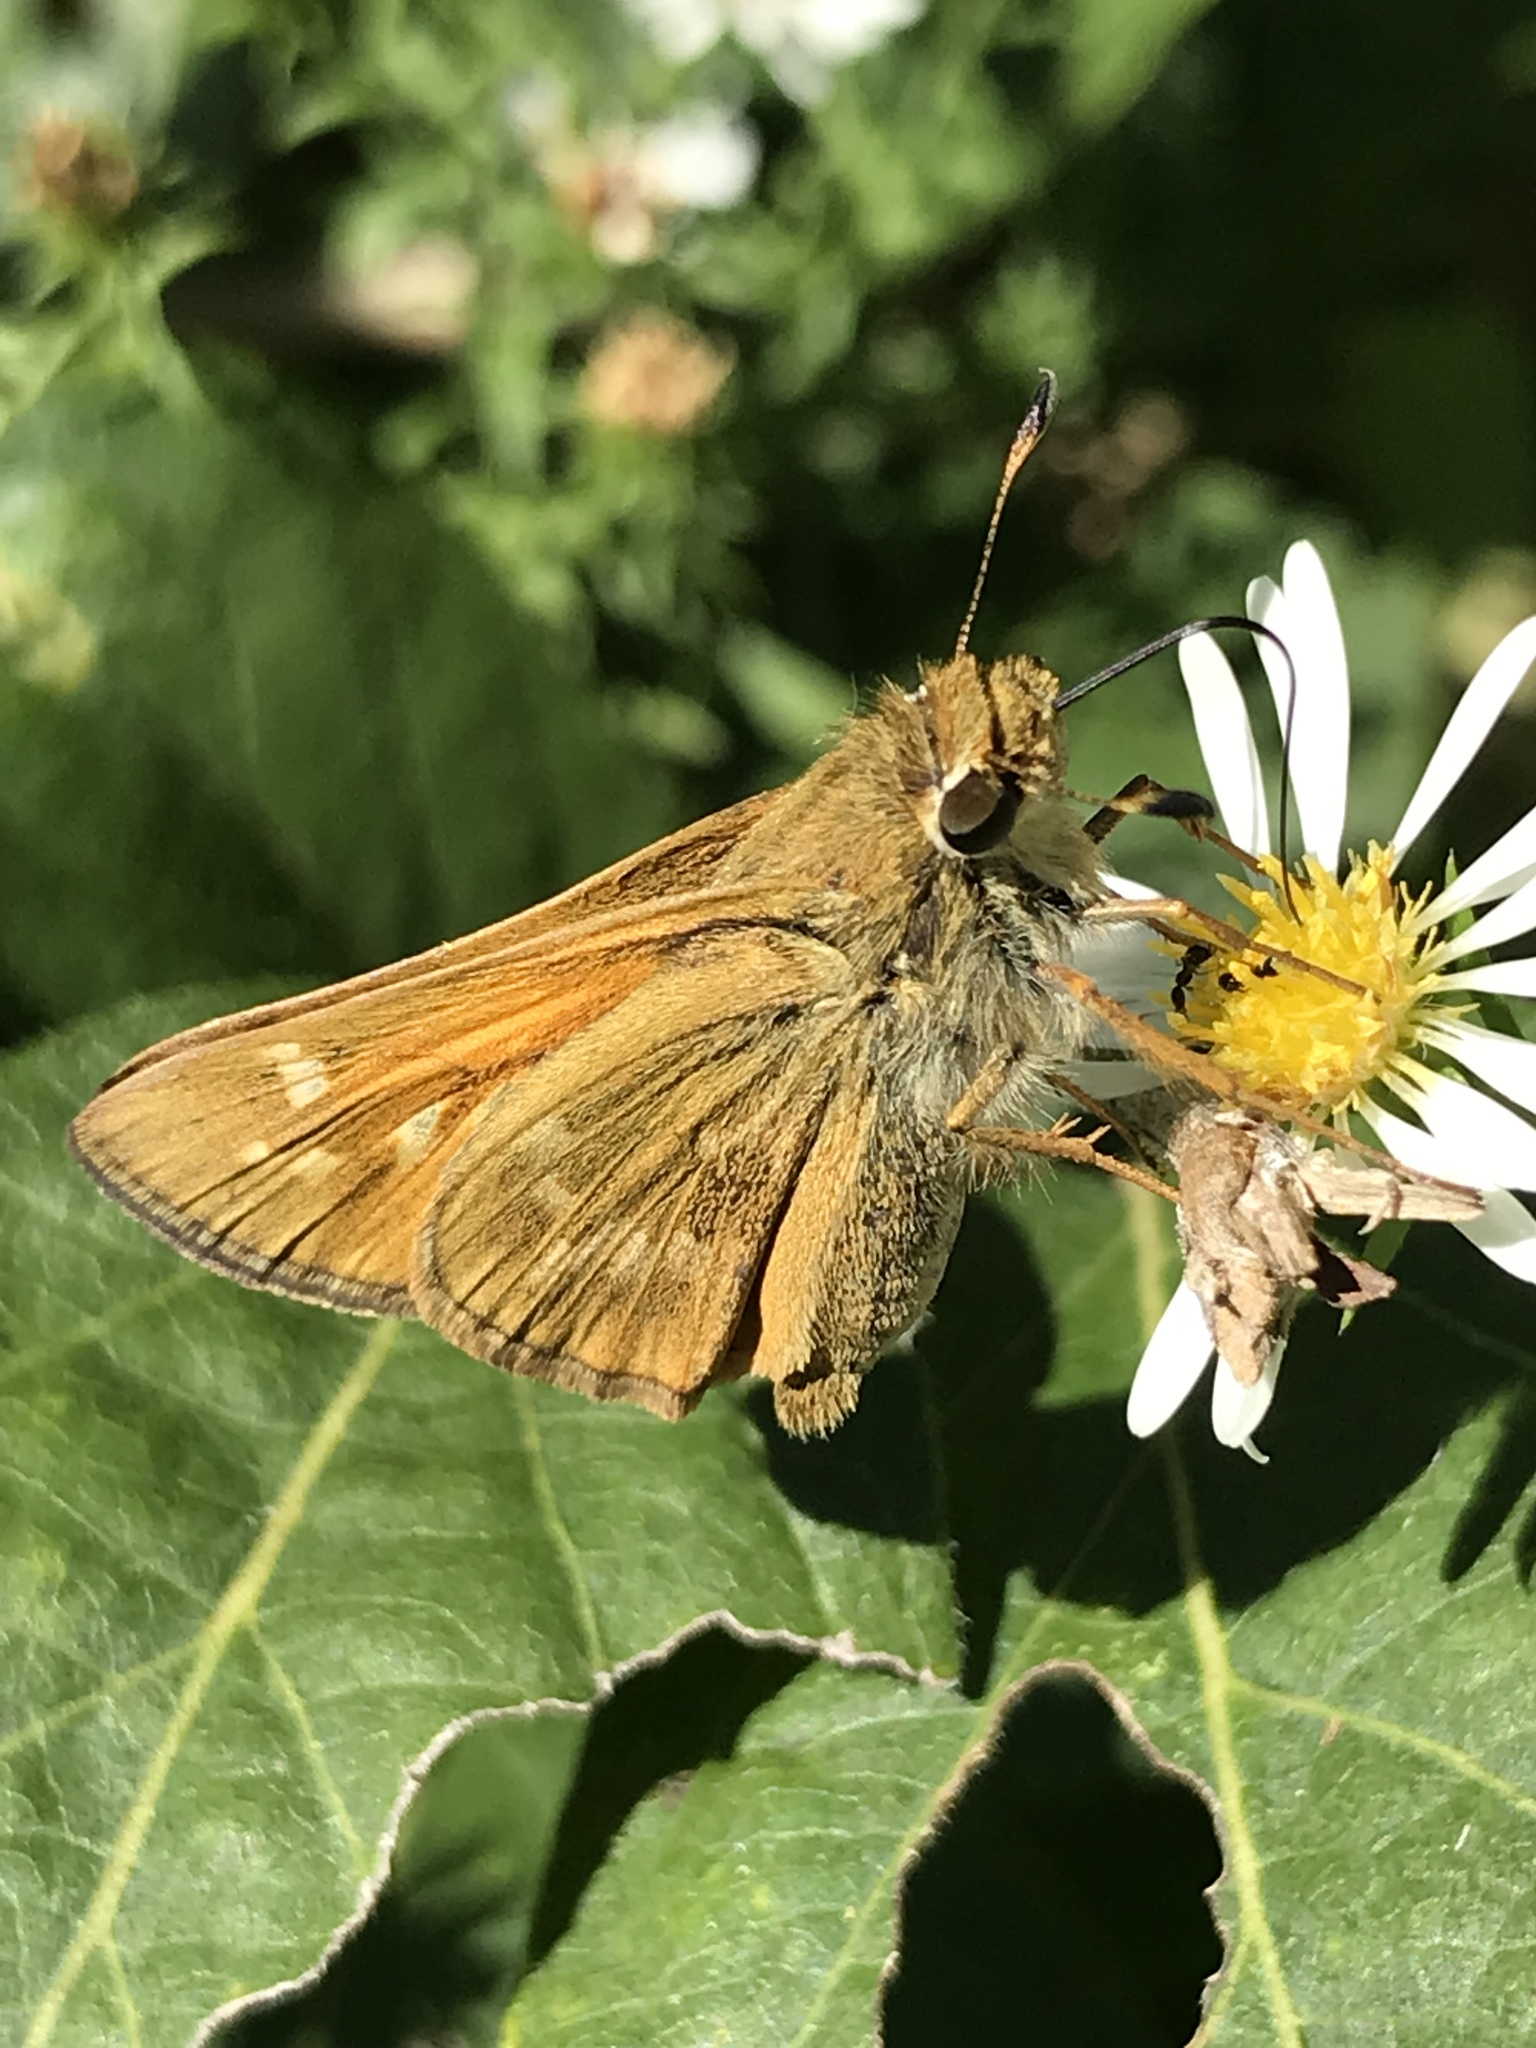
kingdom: Animalia
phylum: Arthropoda
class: Insecta
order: Lepidoptera
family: Hesperiidae
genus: Atalopedes
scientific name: Atalopedes
